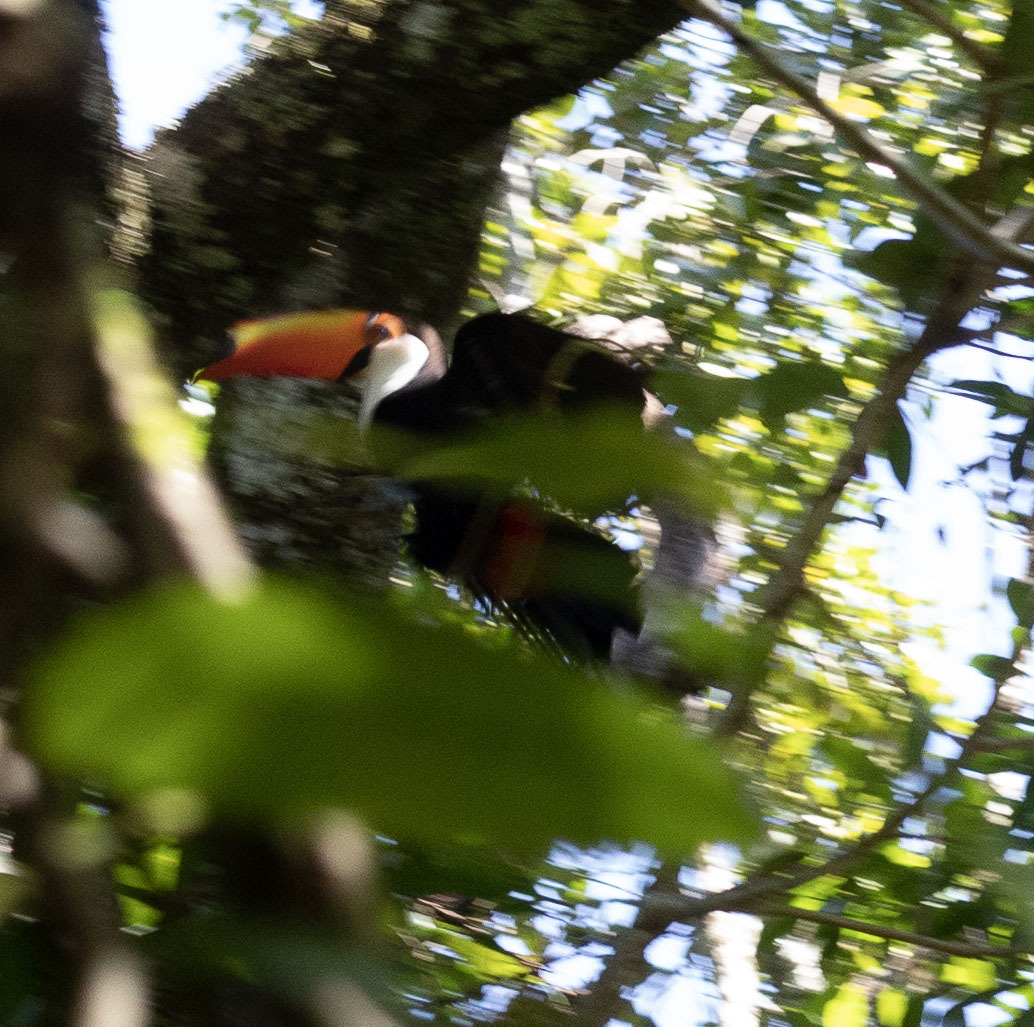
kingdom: Animalia
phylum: Chordata
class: Aves
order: Piciformes
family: Ramphastidae
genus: Ramphastos
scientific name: Ramphastos toco
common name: Toco toucan
